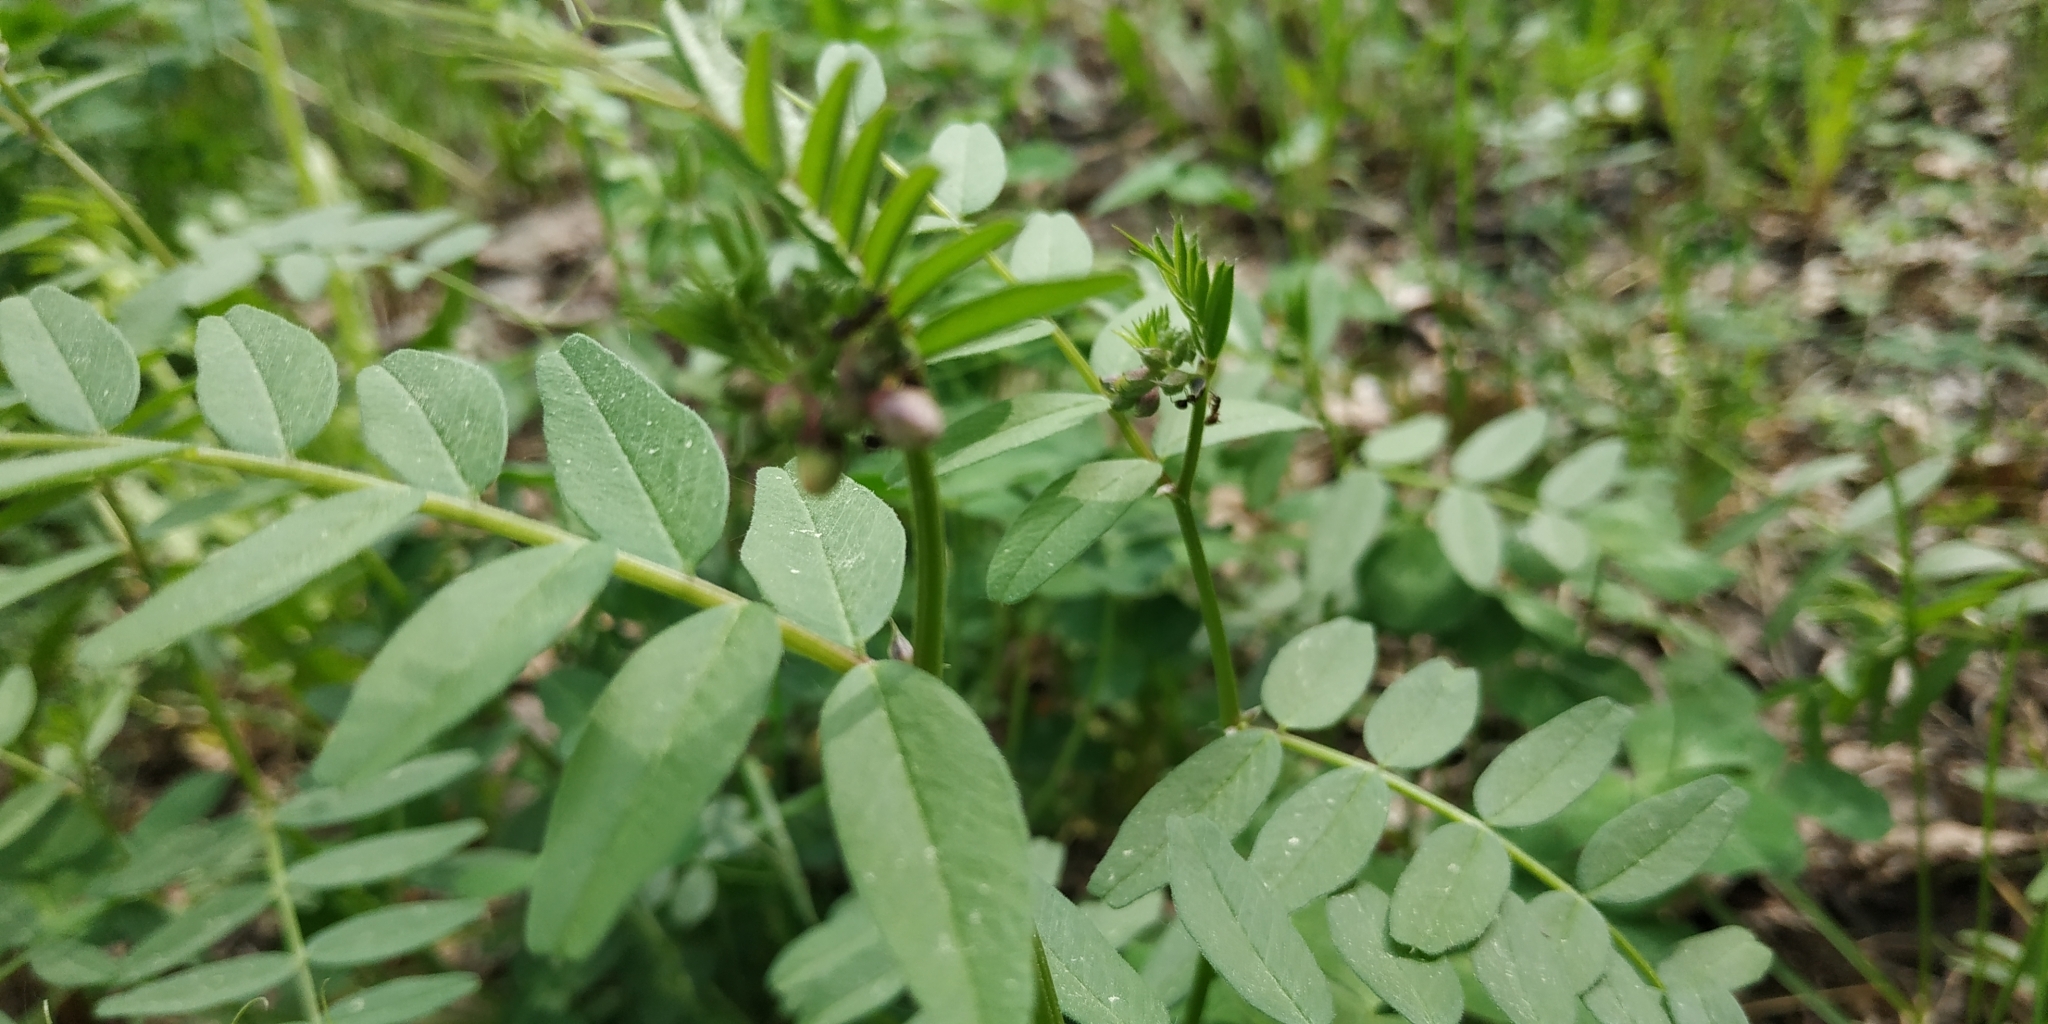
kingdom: Plantae
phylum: Tracheophyta
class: Magnoliopsida
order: Fabales
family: Fabaceae
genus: Vicia
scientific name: Vicia sepium
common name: Bush vetch
